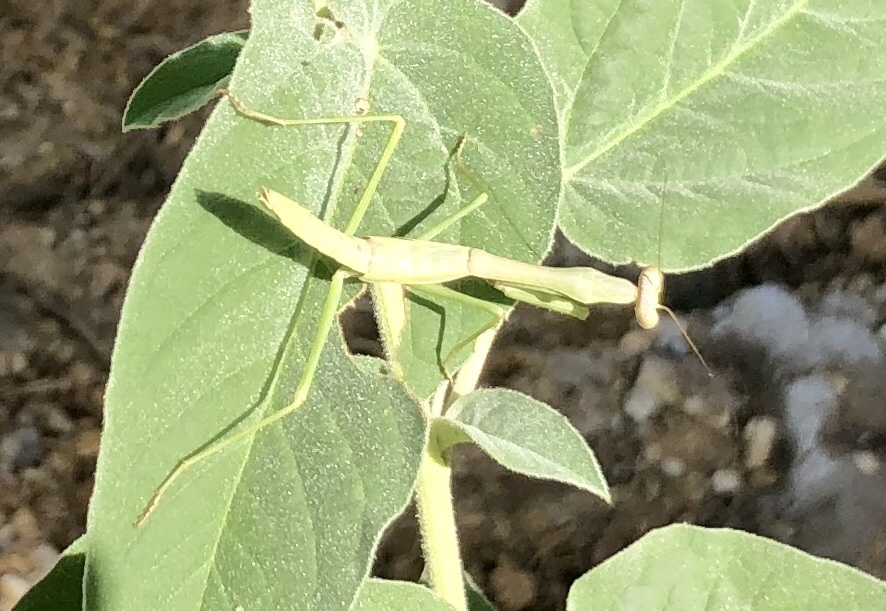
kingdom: Animalia
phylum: Arthropoda
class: Insecta
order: Mantodea
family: Mantidae
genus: Stagmomantis
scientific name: Stagmomantis carolina
